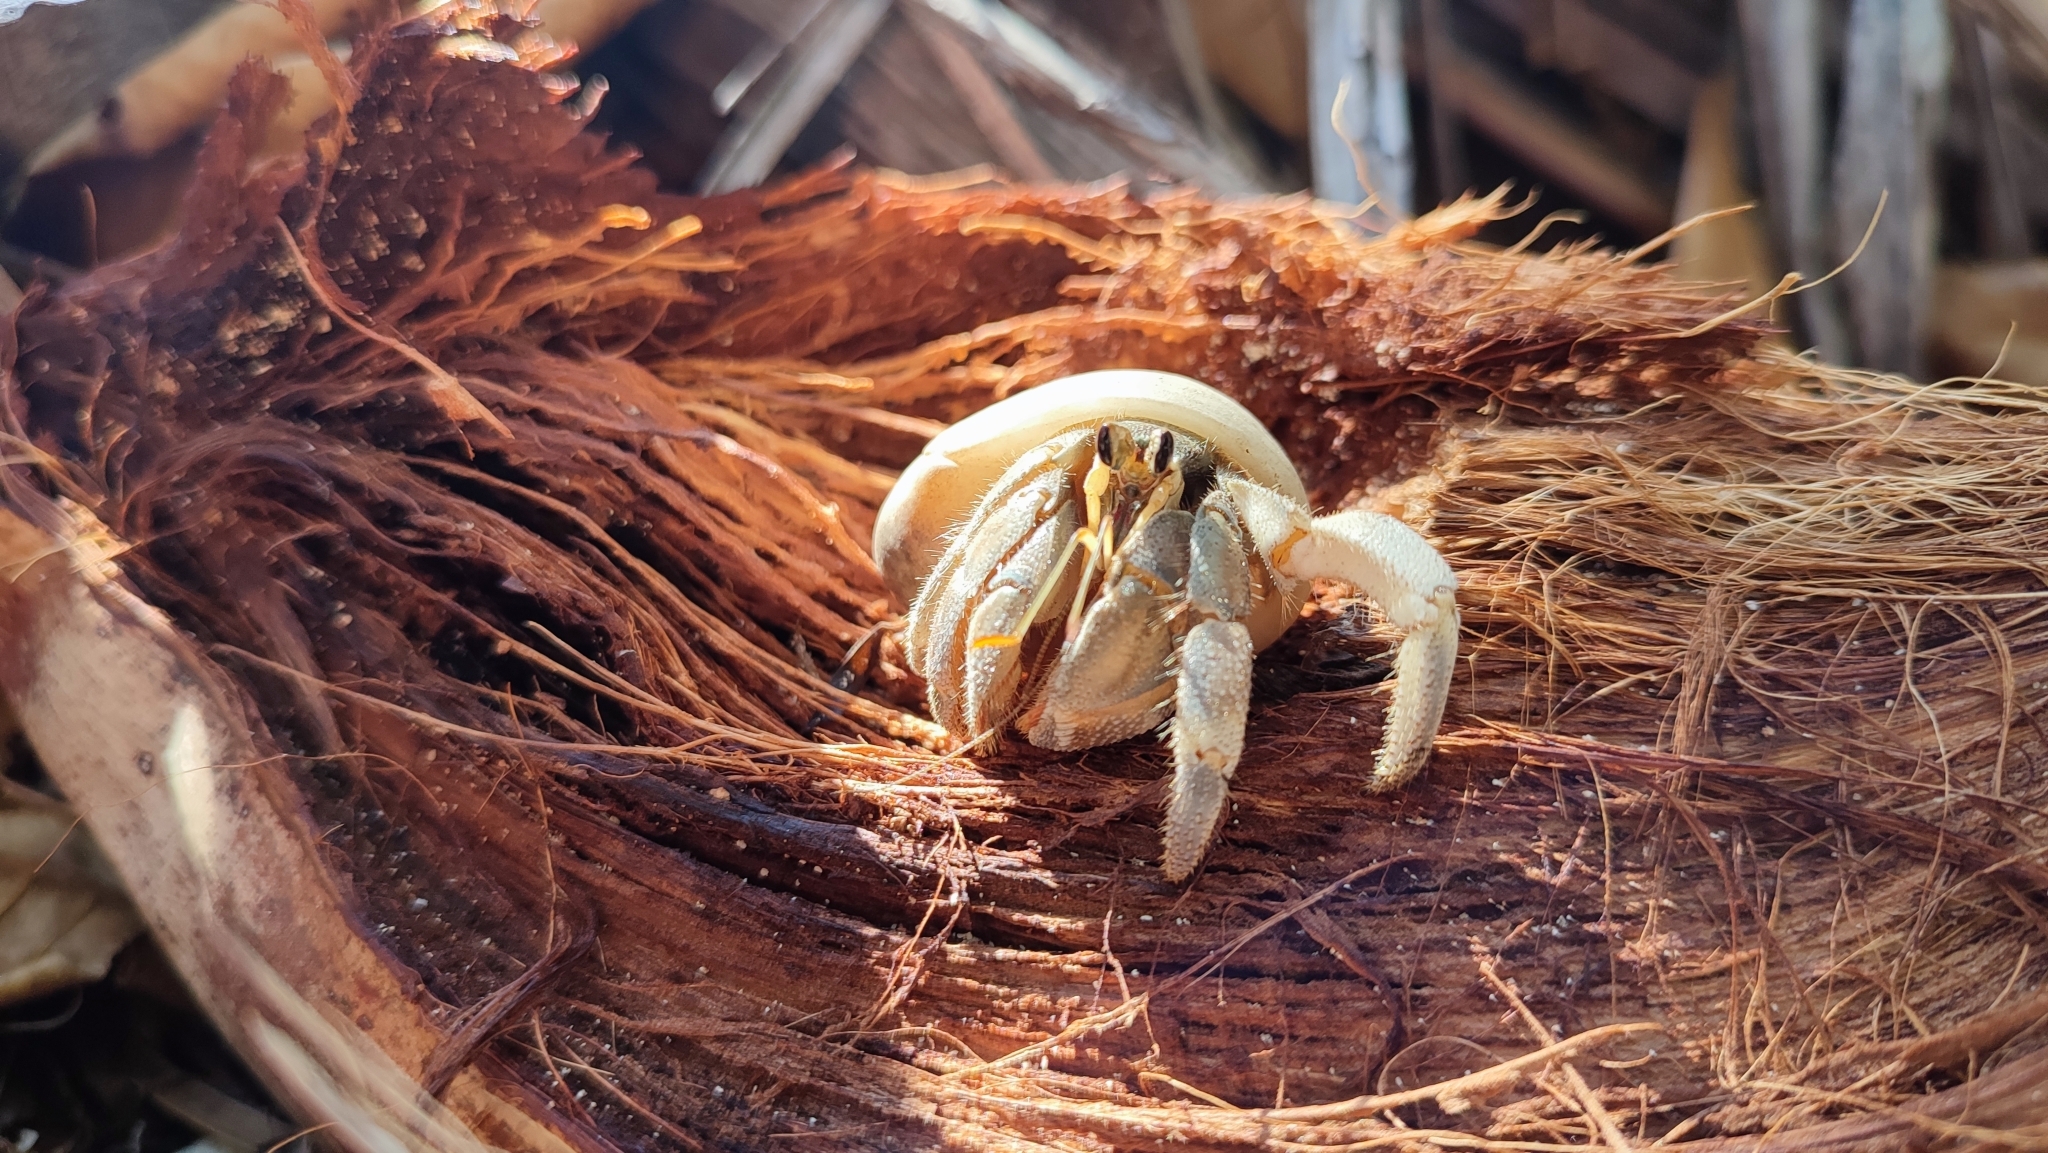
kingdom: Animalia
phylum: Arthropoda
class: Malacostraca
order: Decapoda
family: Coenobitidae
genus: Coenobita
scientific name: Coenobita rugosus
